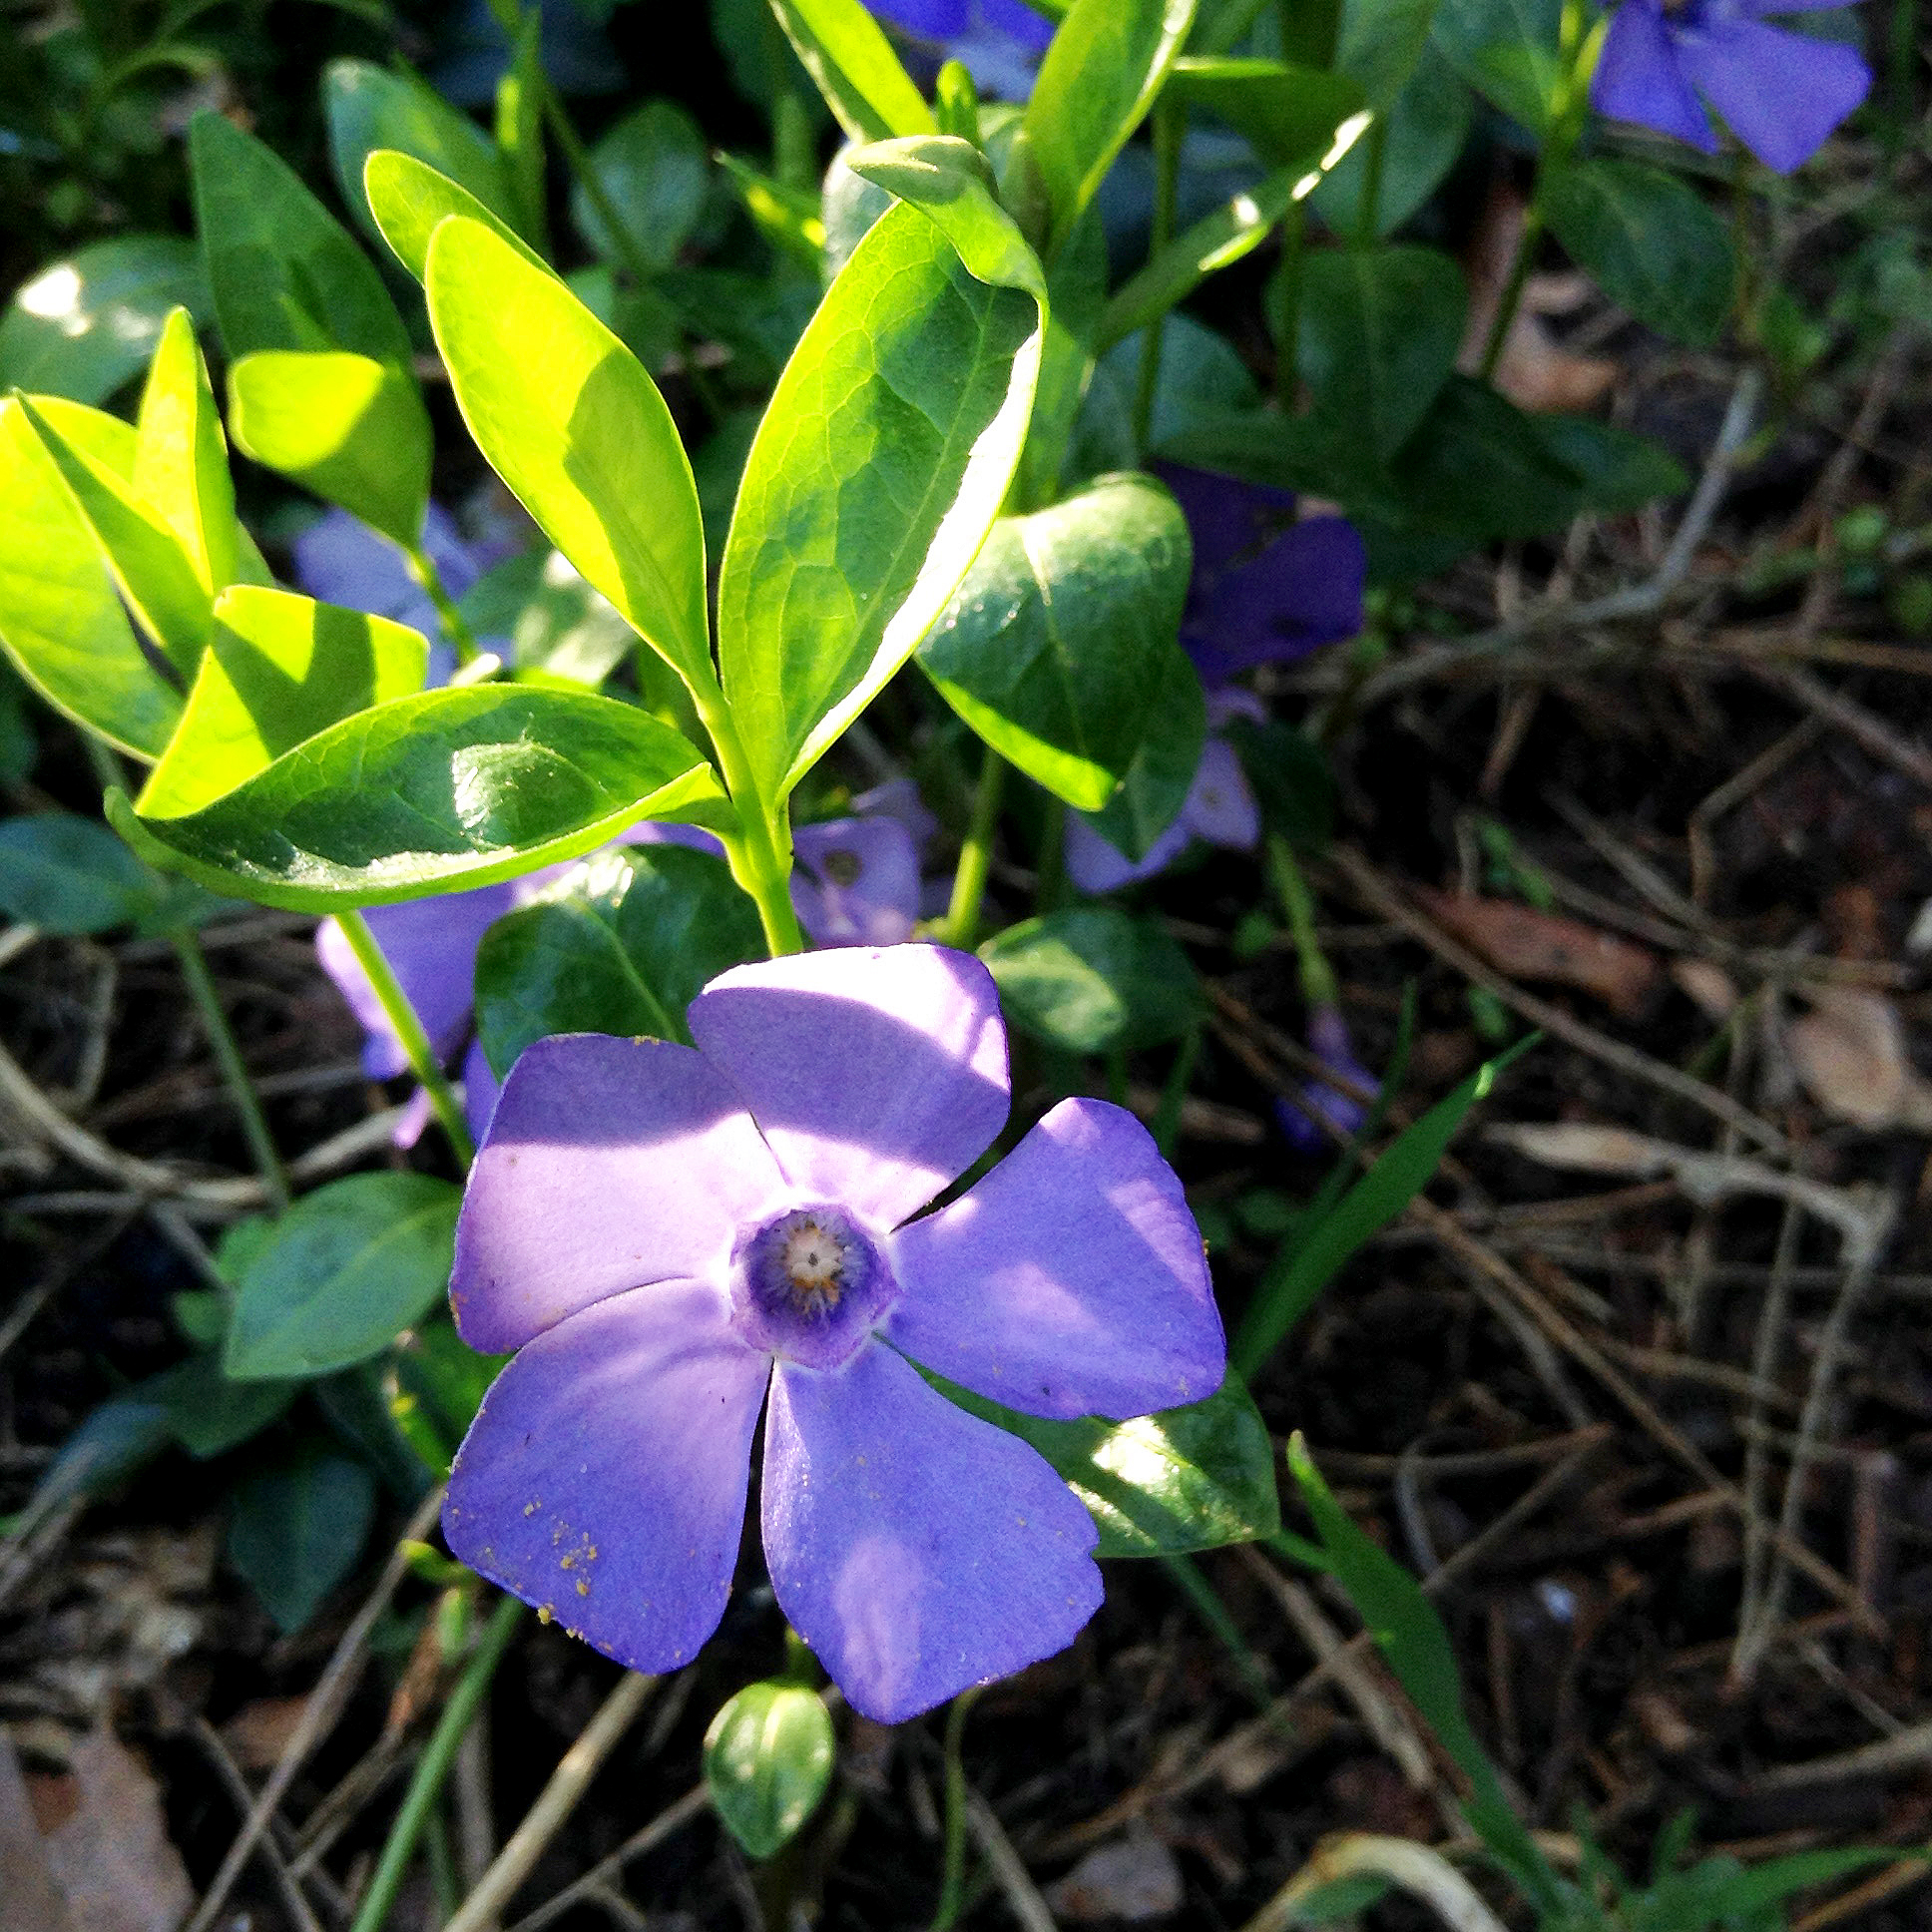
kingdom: Plantae
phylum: Tracheophyta
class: Magnoliopsida
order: Gentianales
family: Apocynaceae
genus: Vinca
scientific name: Vinca minor
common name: Lesser periwinkle
